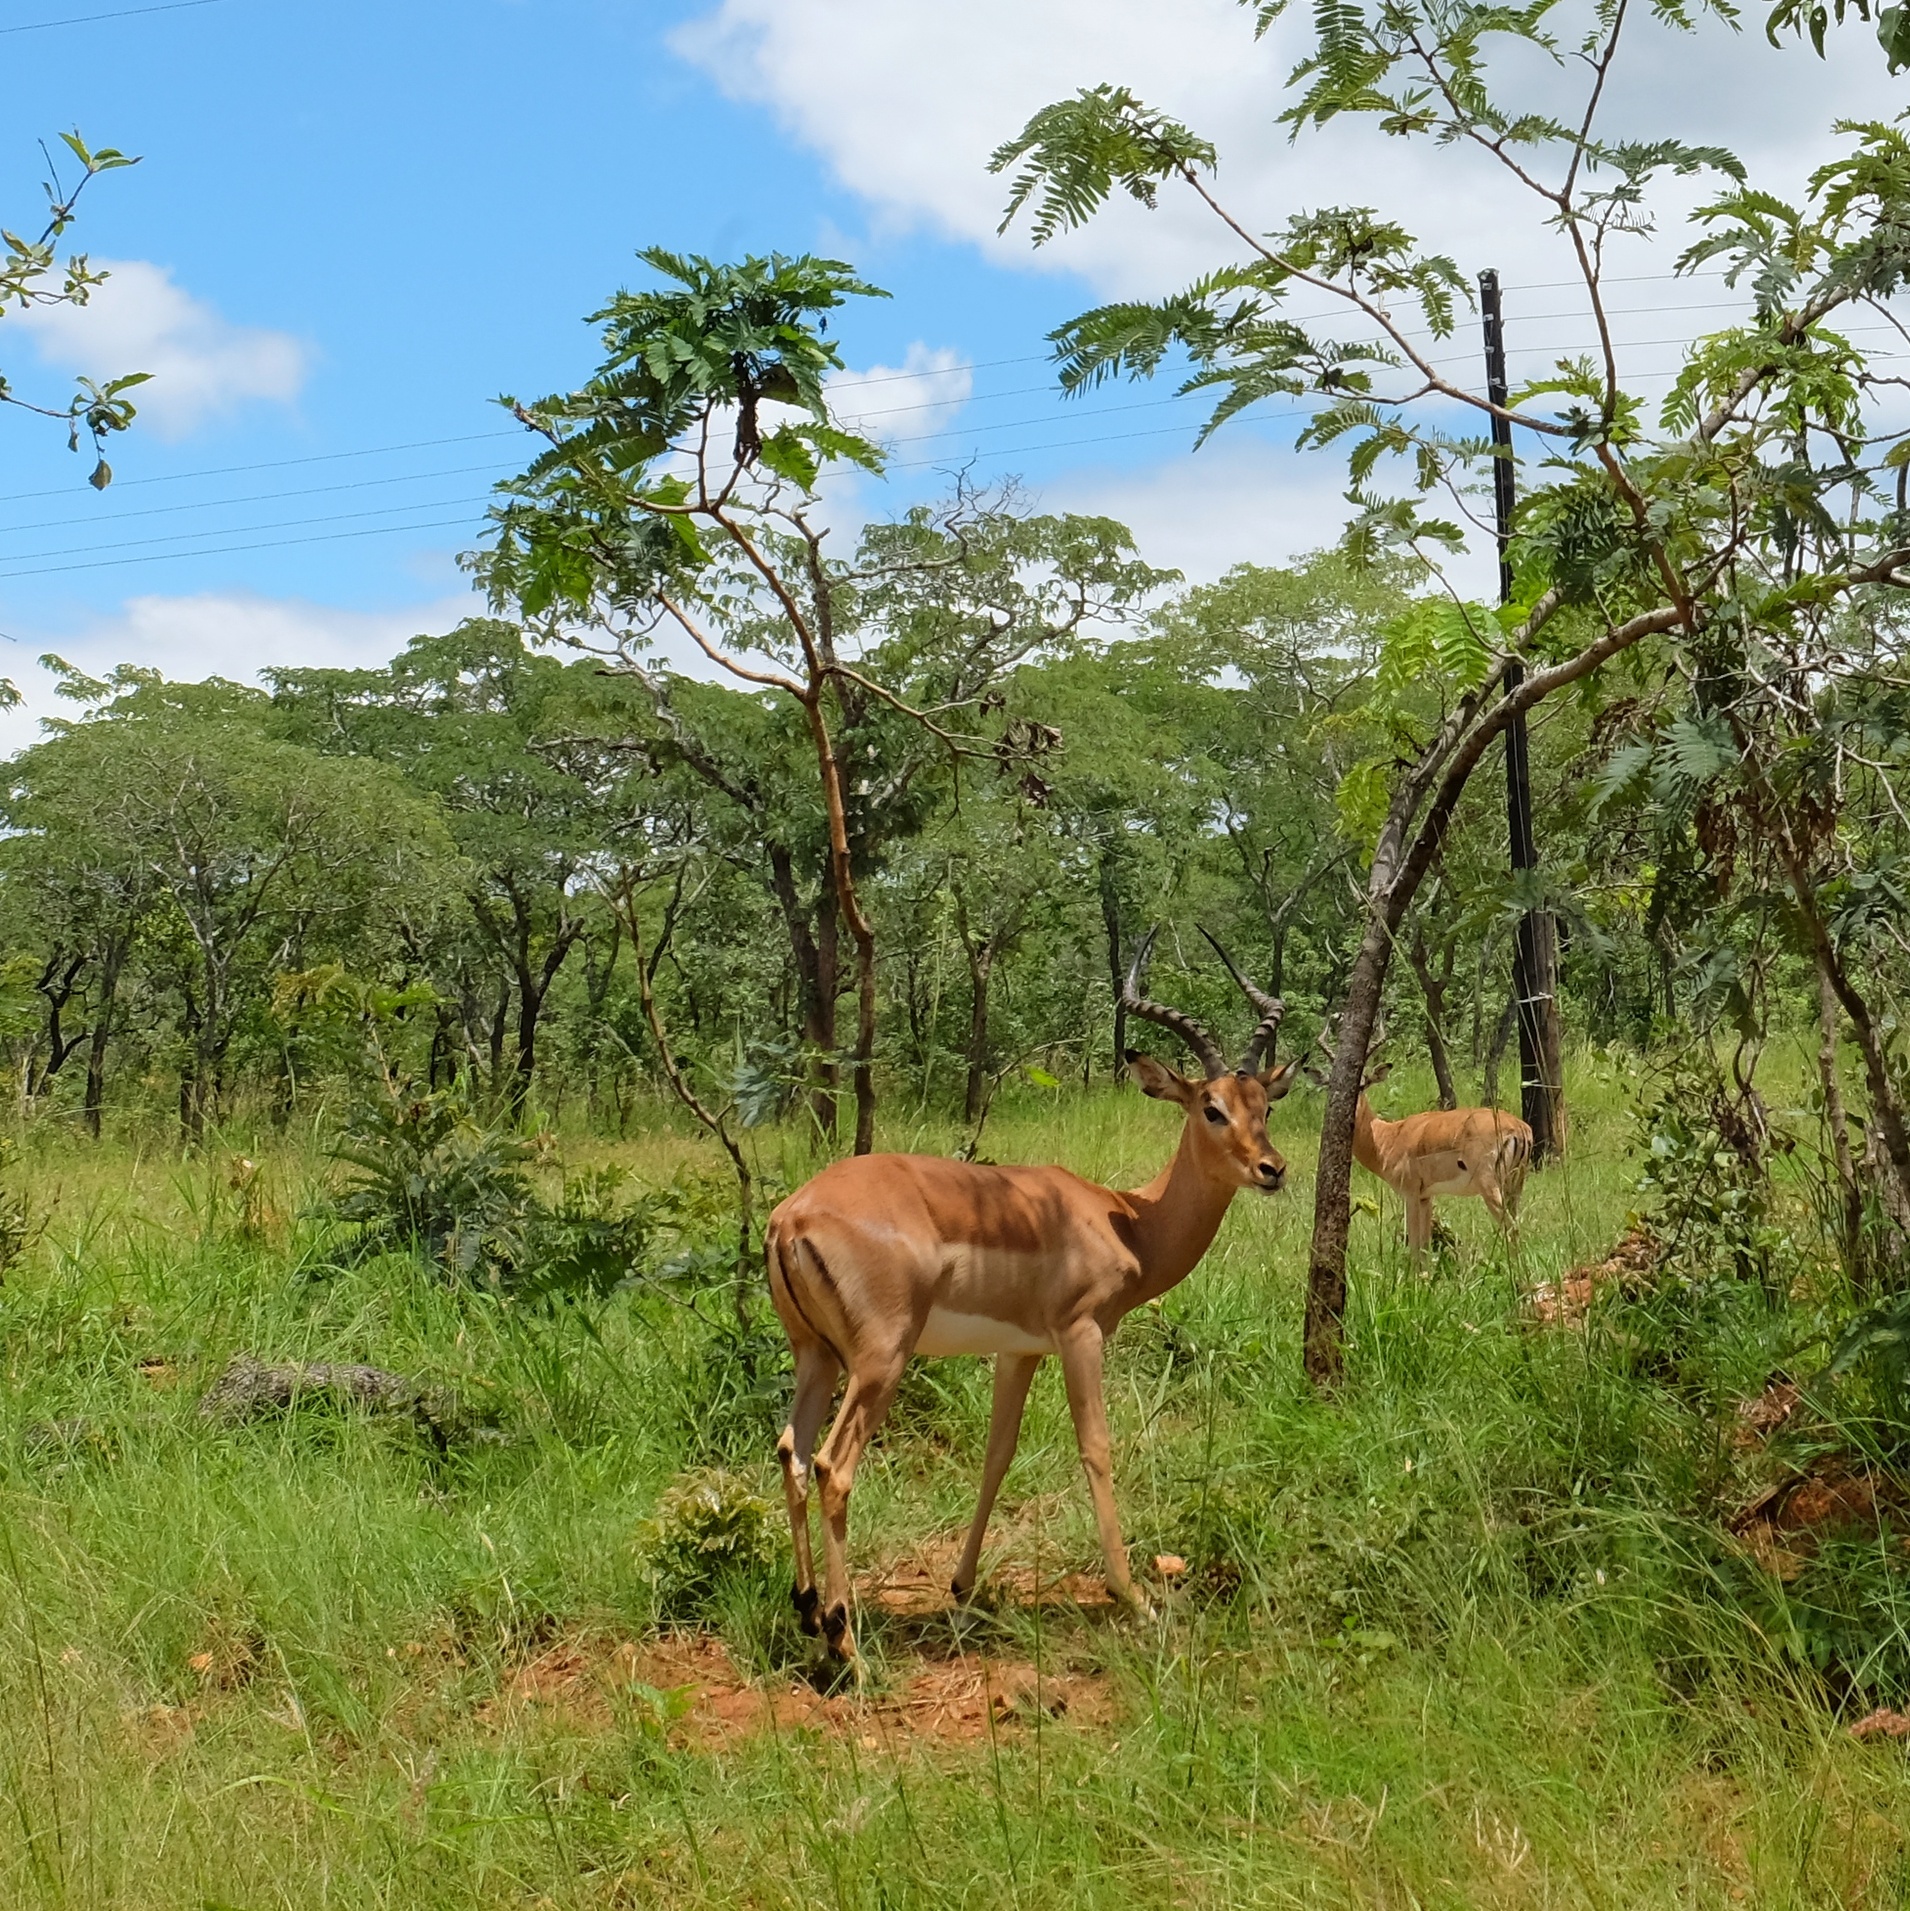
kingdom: Animalia
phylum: Chordata
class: Mammalia
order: Artiodactyla
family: Bovidae
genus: Aepyceros
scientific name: Aepyceros melampus
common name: Impala
